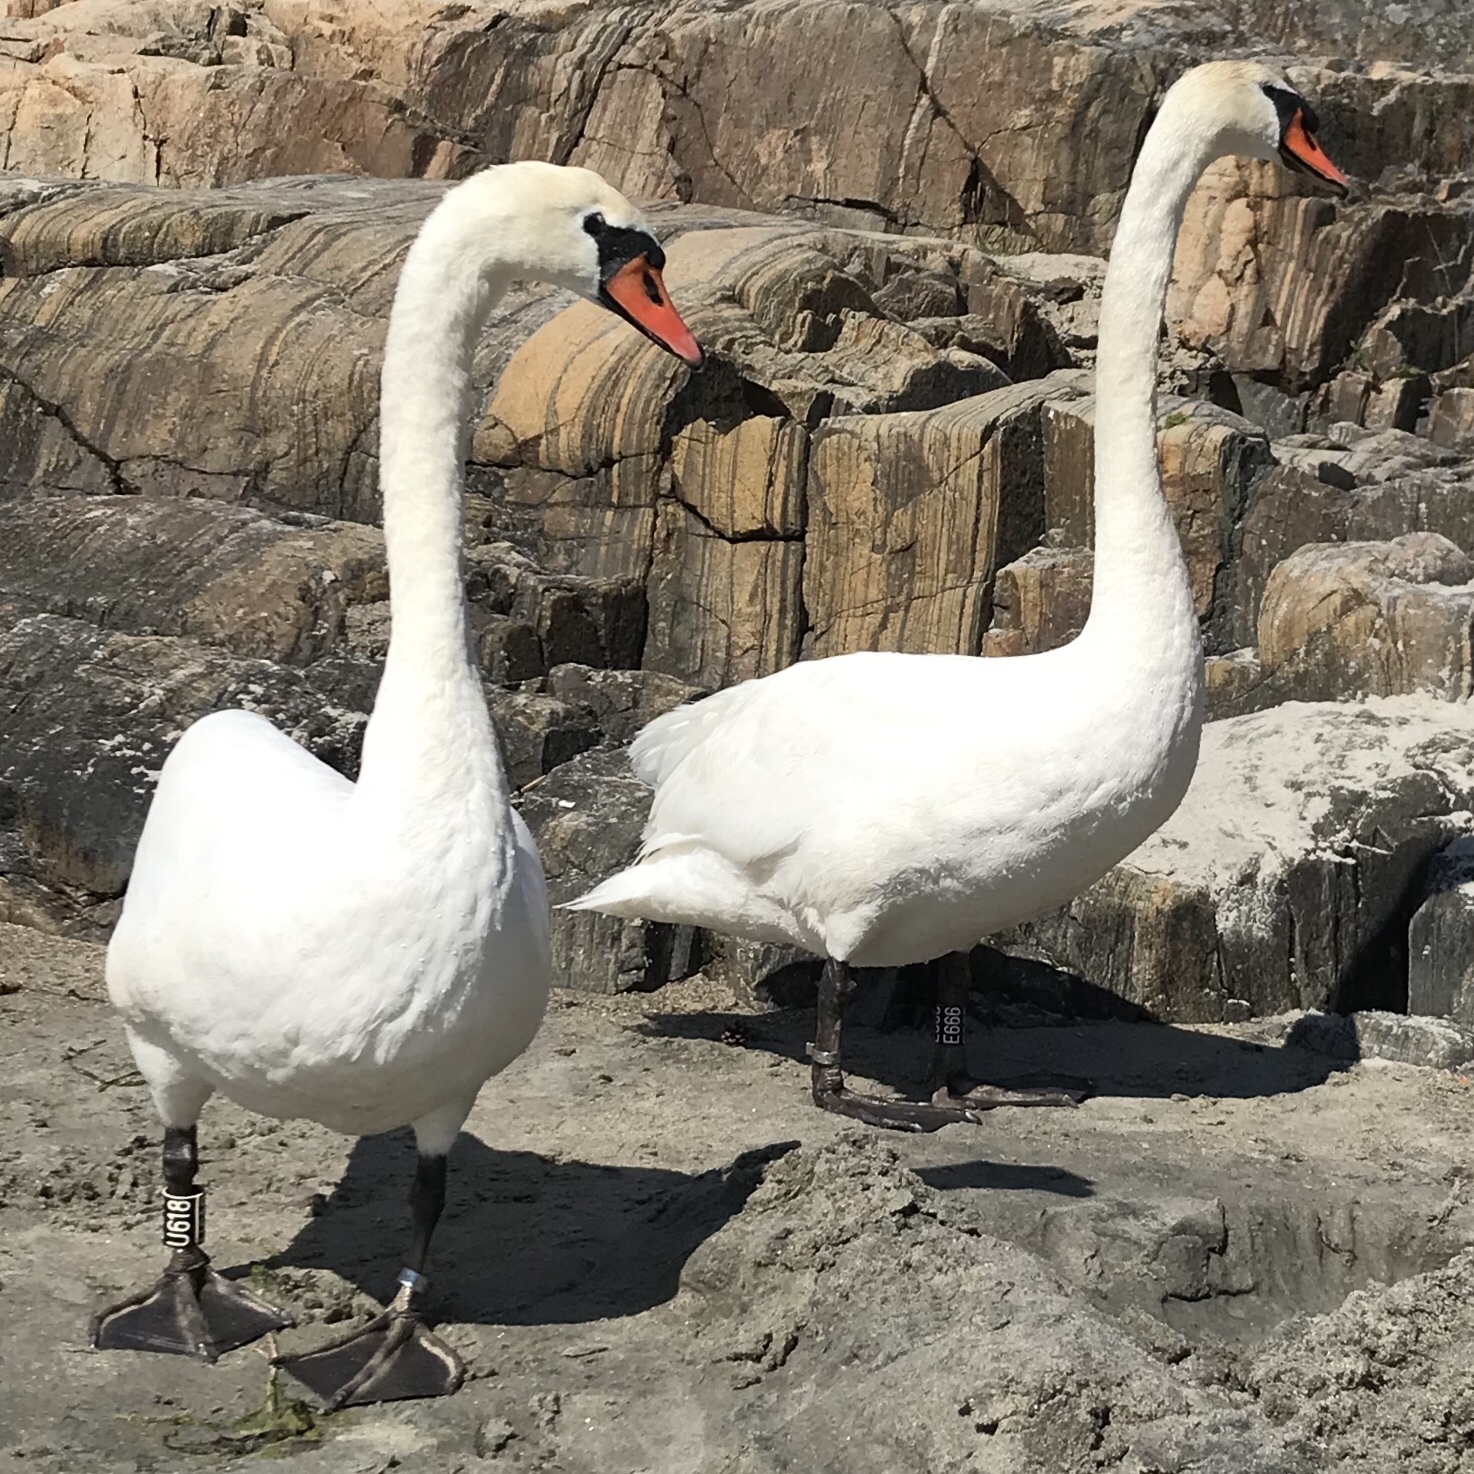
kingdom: Animalia
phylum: Chordata
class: Aves
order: Anseriformes
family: Anatidae
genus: Cygnus
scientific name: Cygnus olor
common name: Mute swan
